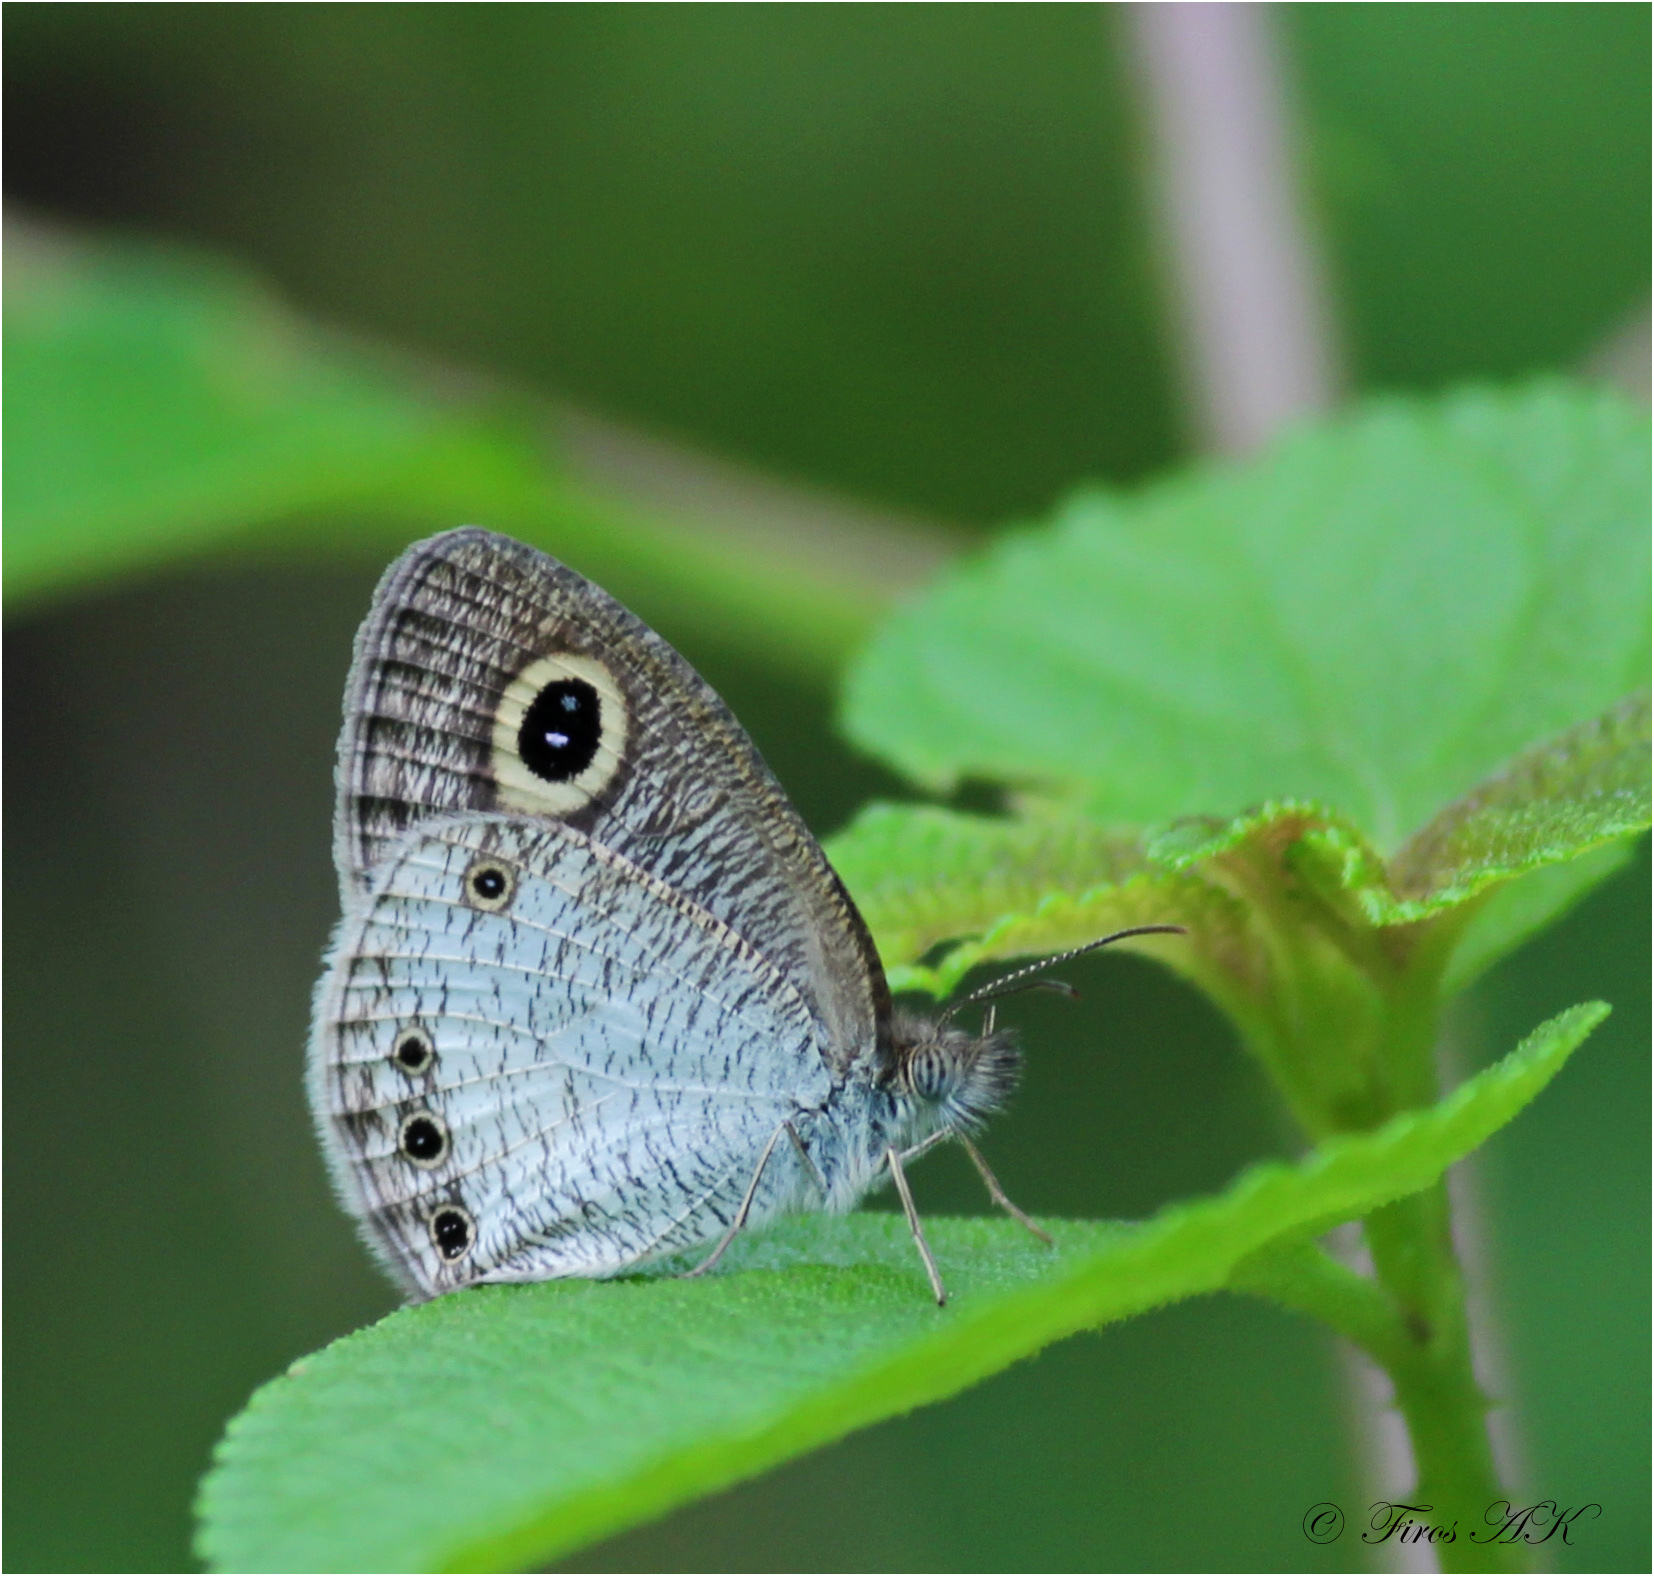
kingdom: Animalia
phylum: Arthropoda
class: Insecta
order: Lepidoptera
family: Nymphalidae
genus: Ypthima
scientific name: Ypthima ceylonica
